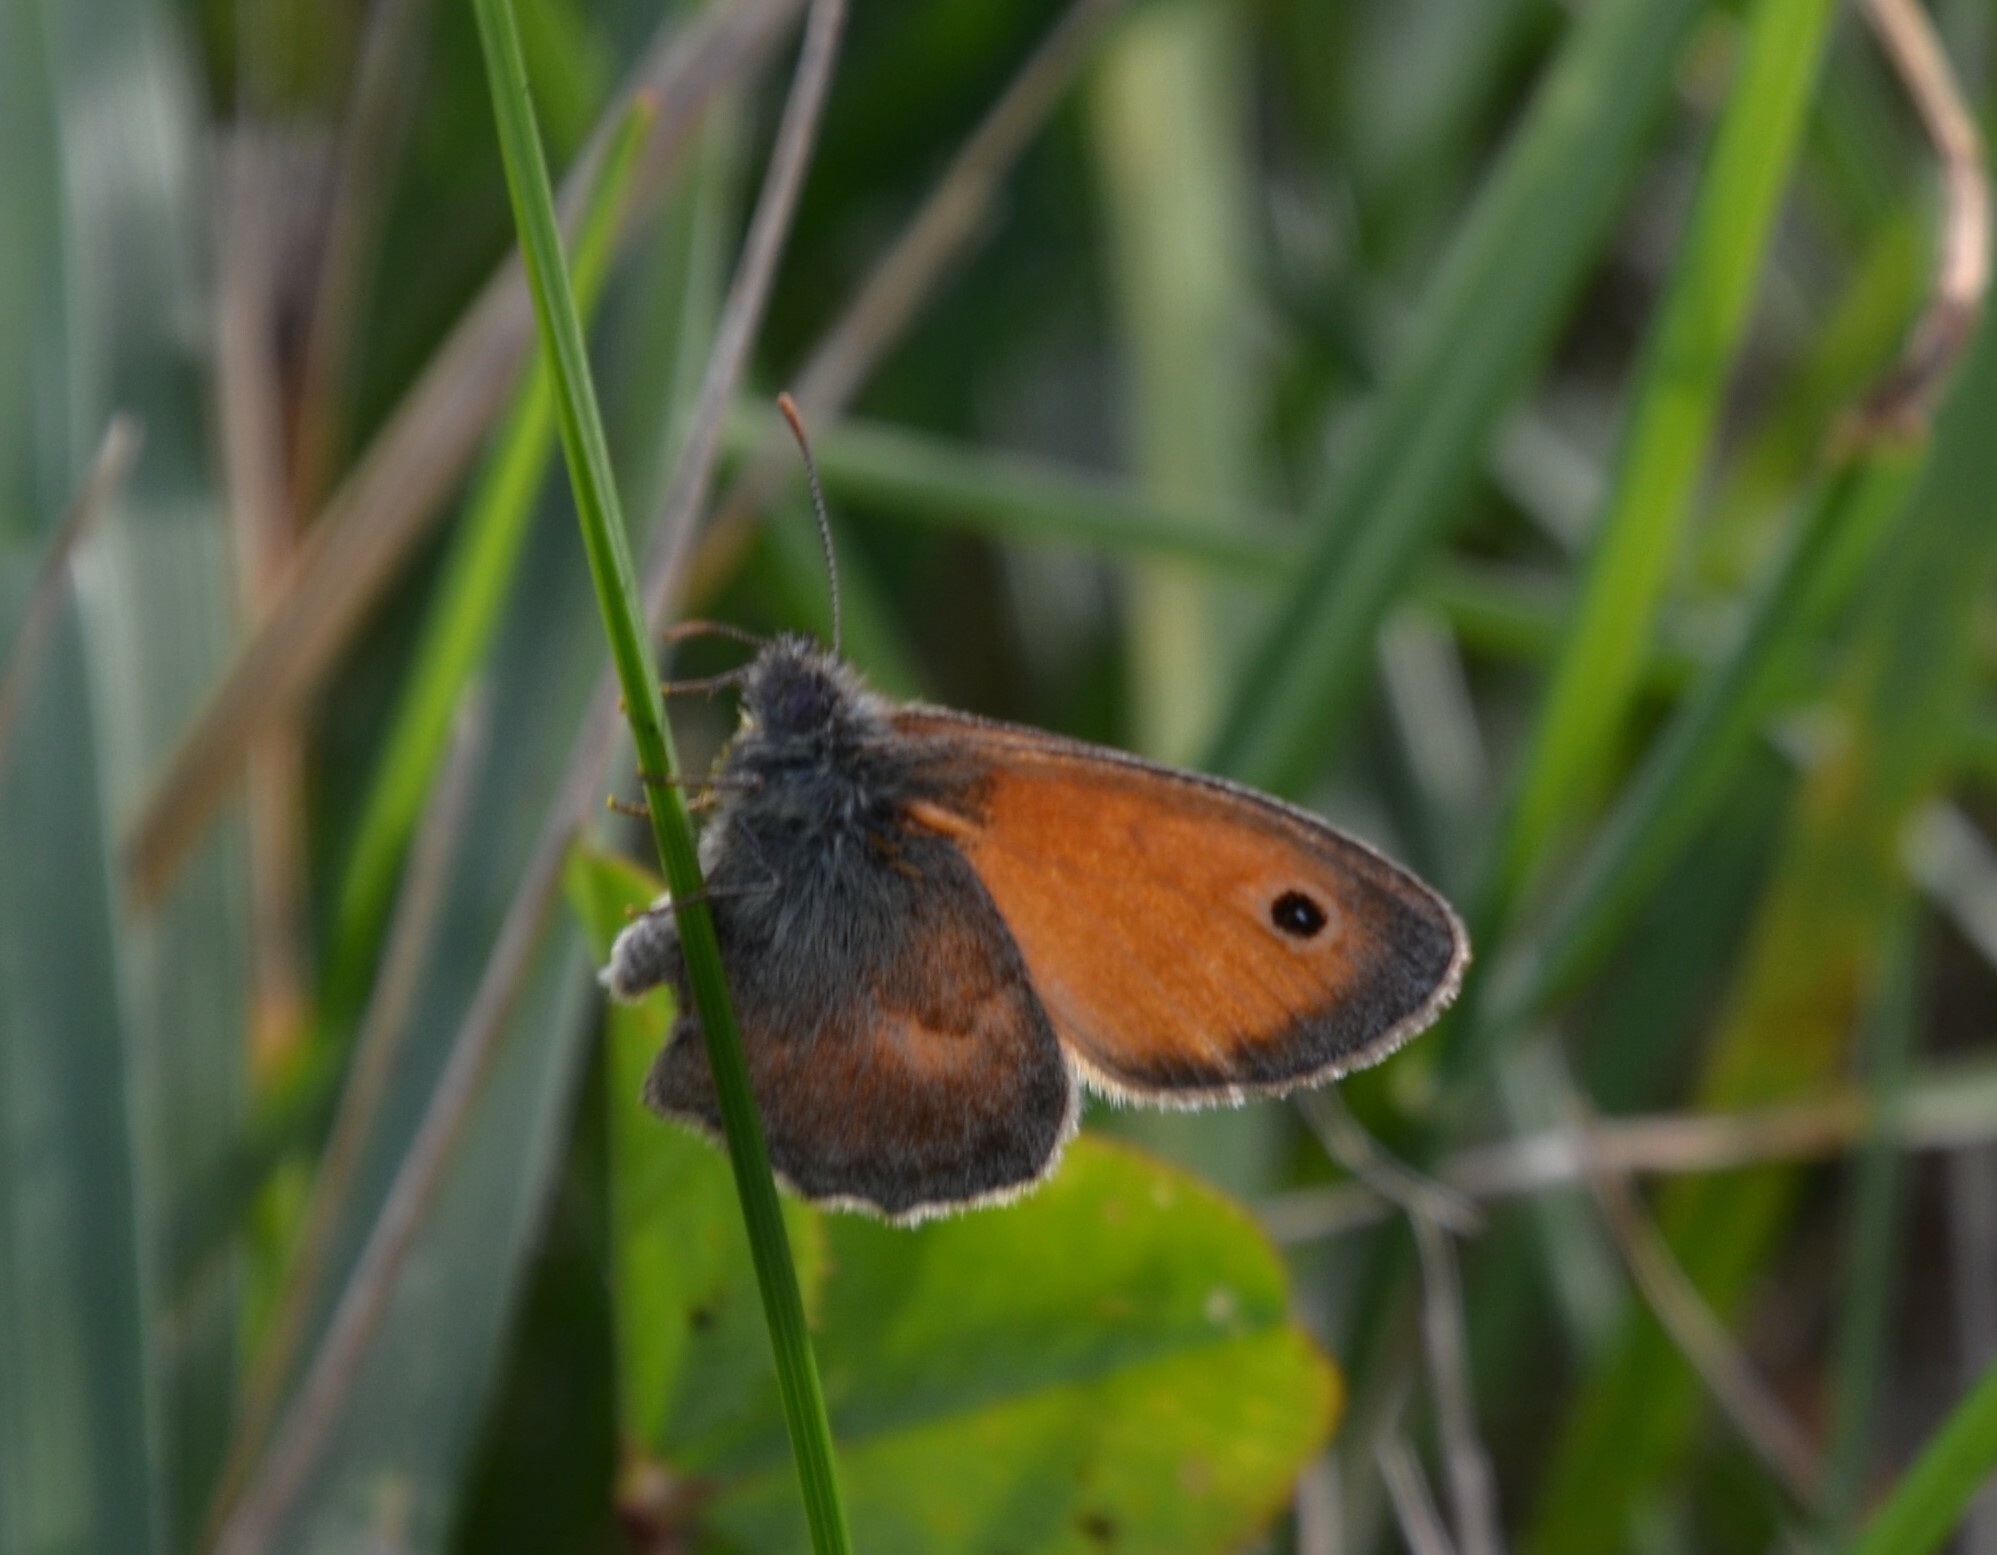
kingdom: Animalia
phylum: Arthropoda
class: Insecta
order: Lepidoptera
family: Nymphalidae
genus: Coenonympha
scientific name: Coenonympha pamphilus
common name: Small heath
